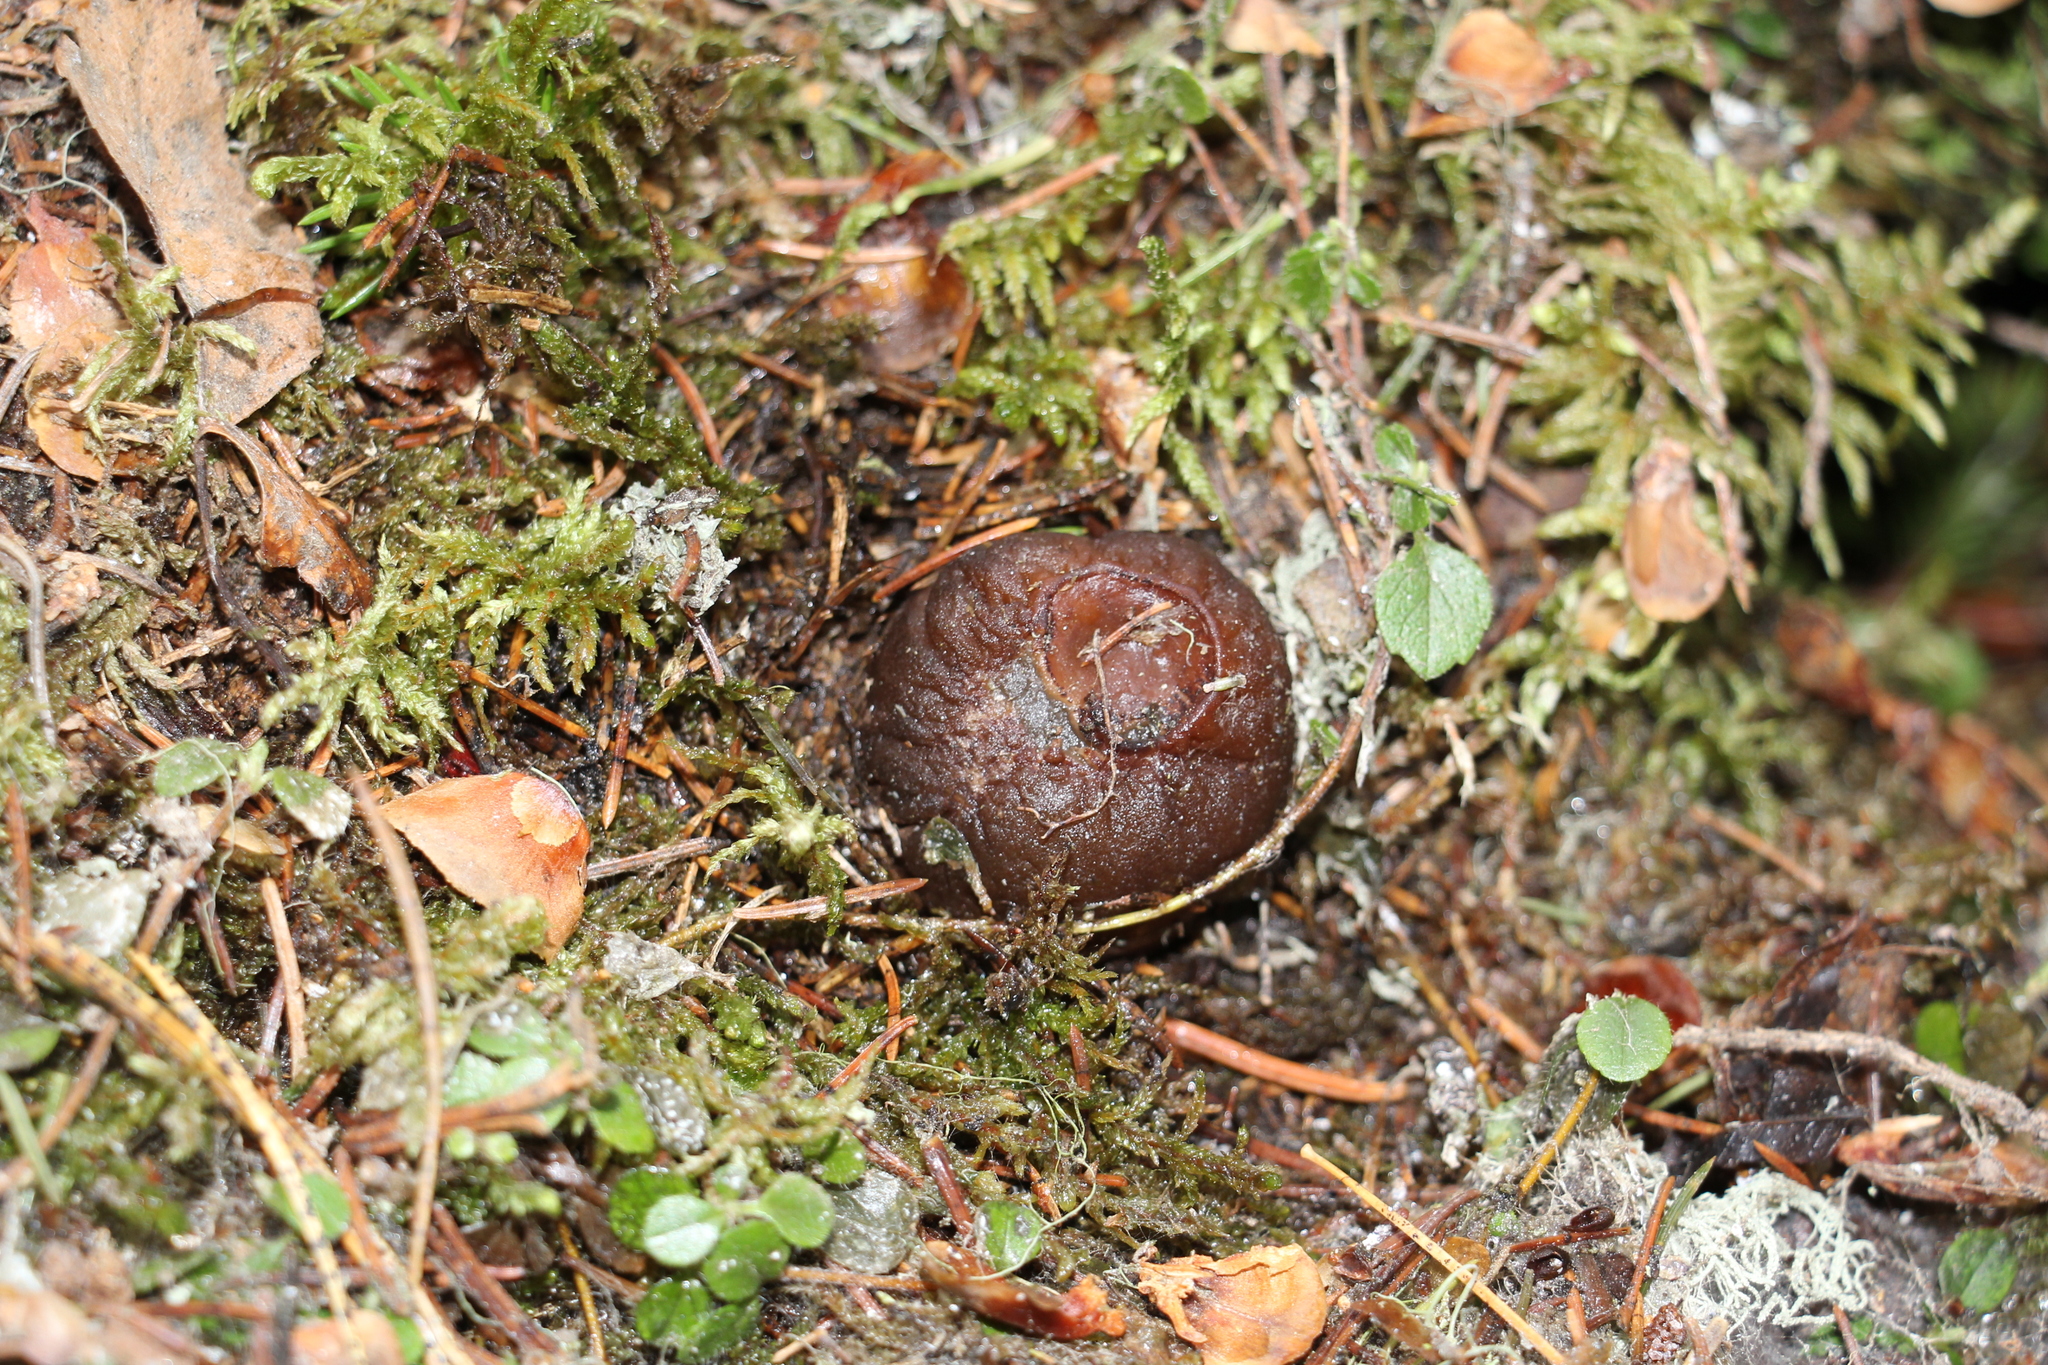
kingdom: Fungi
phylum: Ascomycota
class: Pezizomycetes
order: Pezizales
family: Sarcosomataceae
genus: Sarcosoma
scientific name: Sarcosoma globosum
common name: Charred-pancake cup
